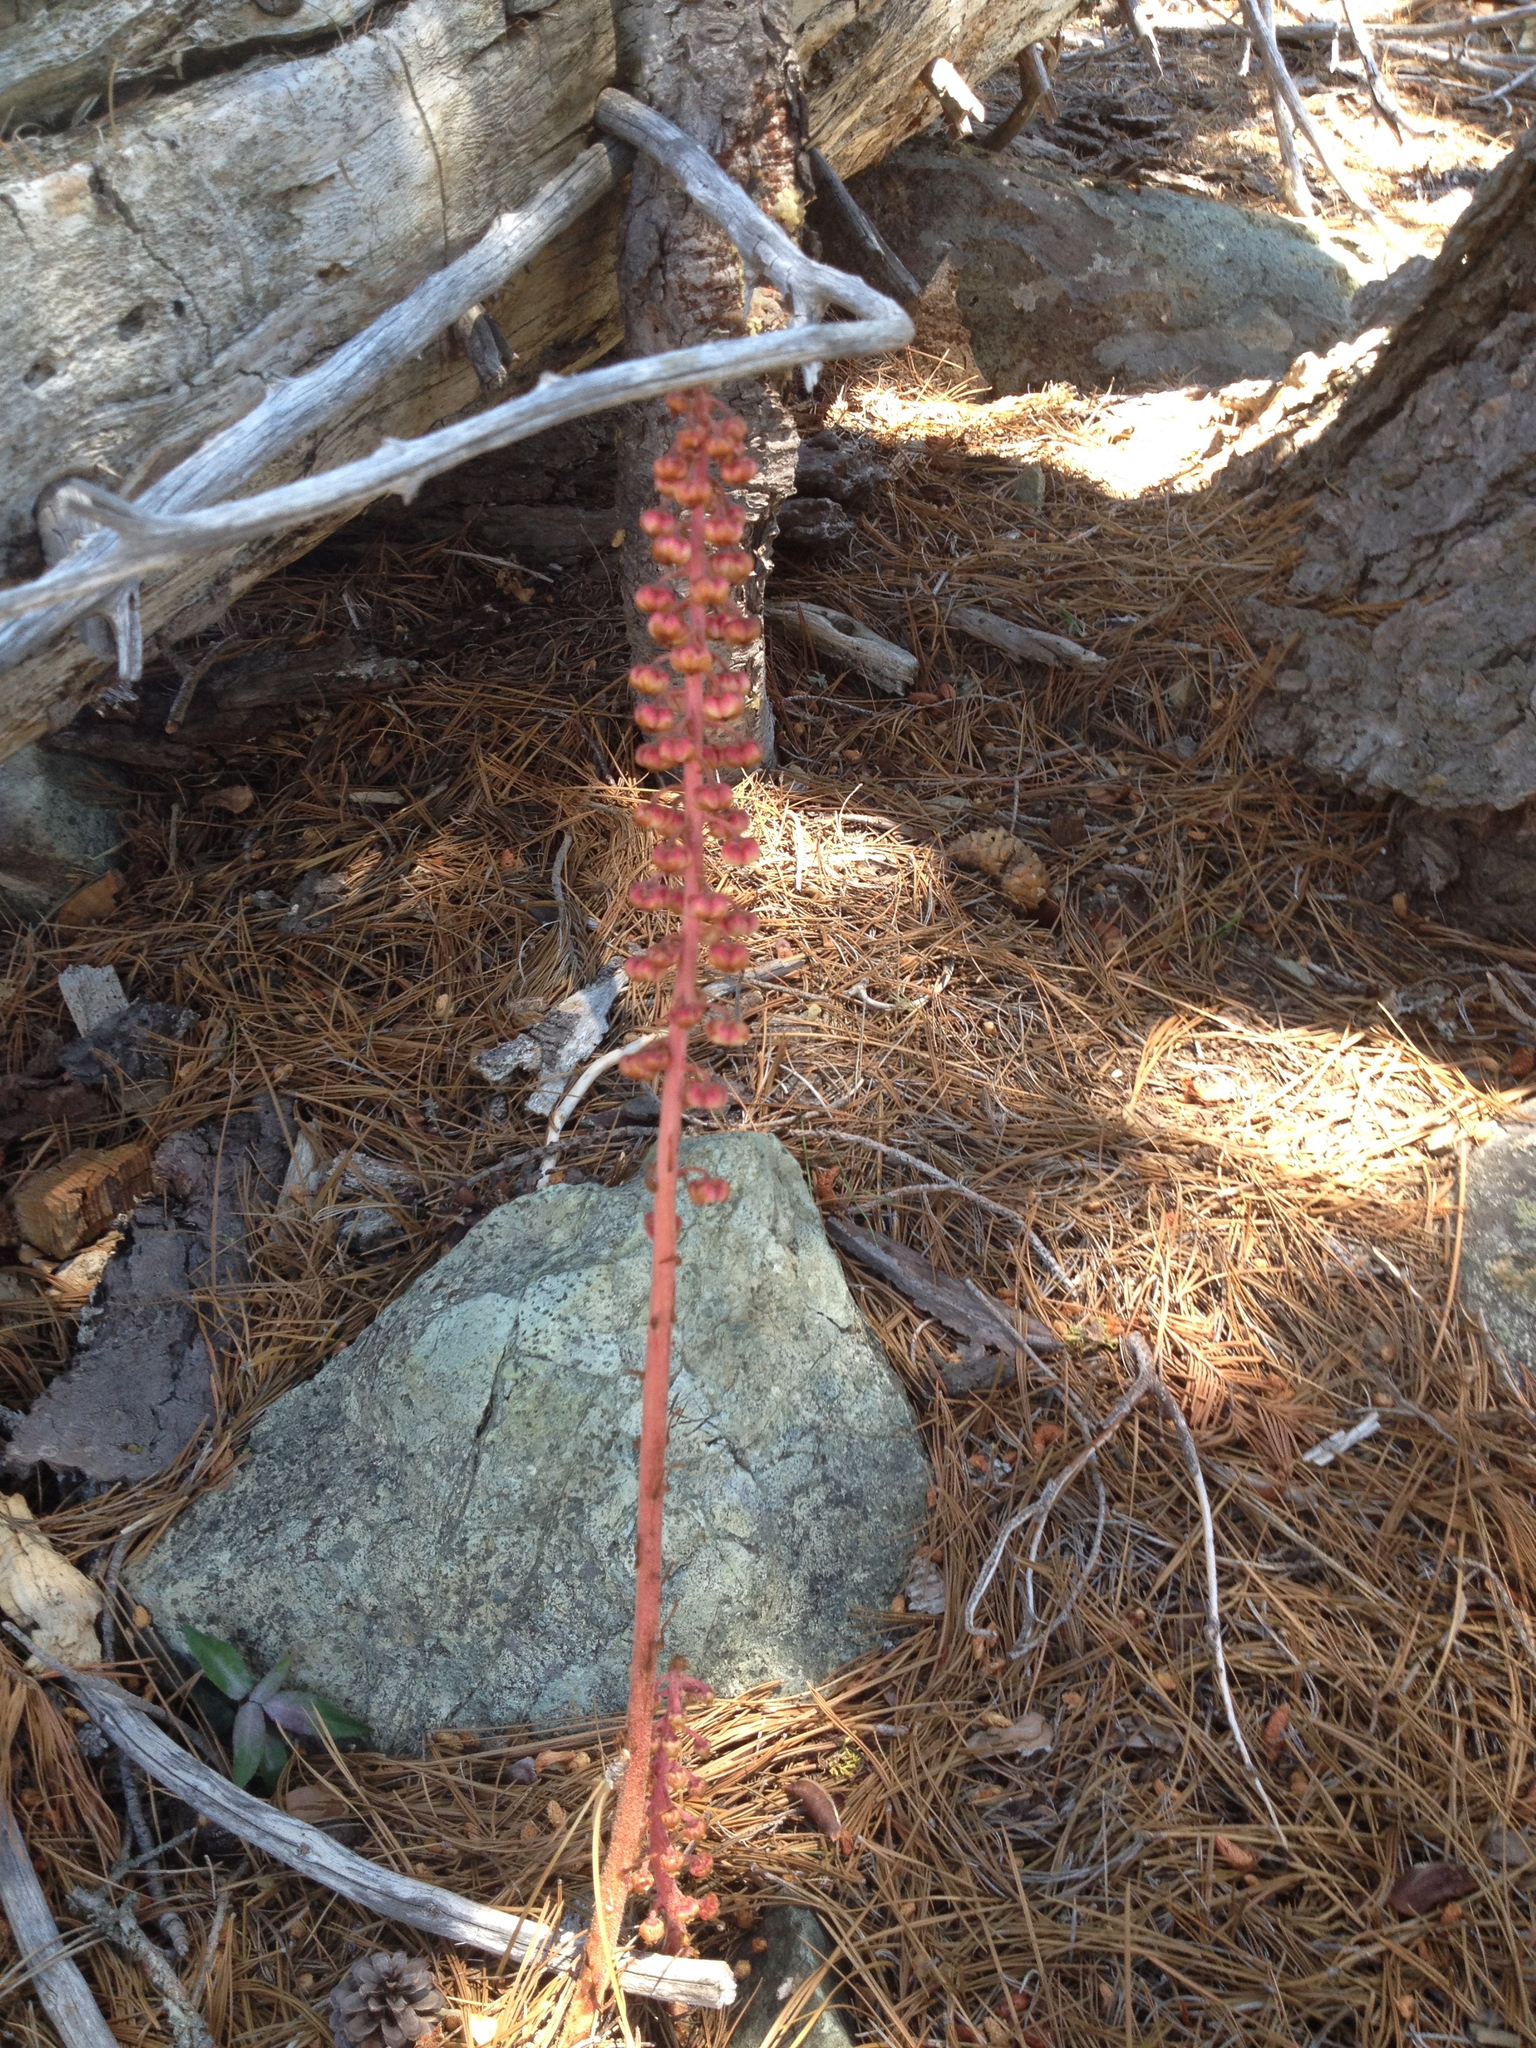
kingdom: Plantae
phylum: Tracheophyta
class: Magnoliopsida
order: Ericales
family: Ericaceae
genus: Pterospora
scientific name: Pterospora andromedea
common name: Giant bird's-nest
